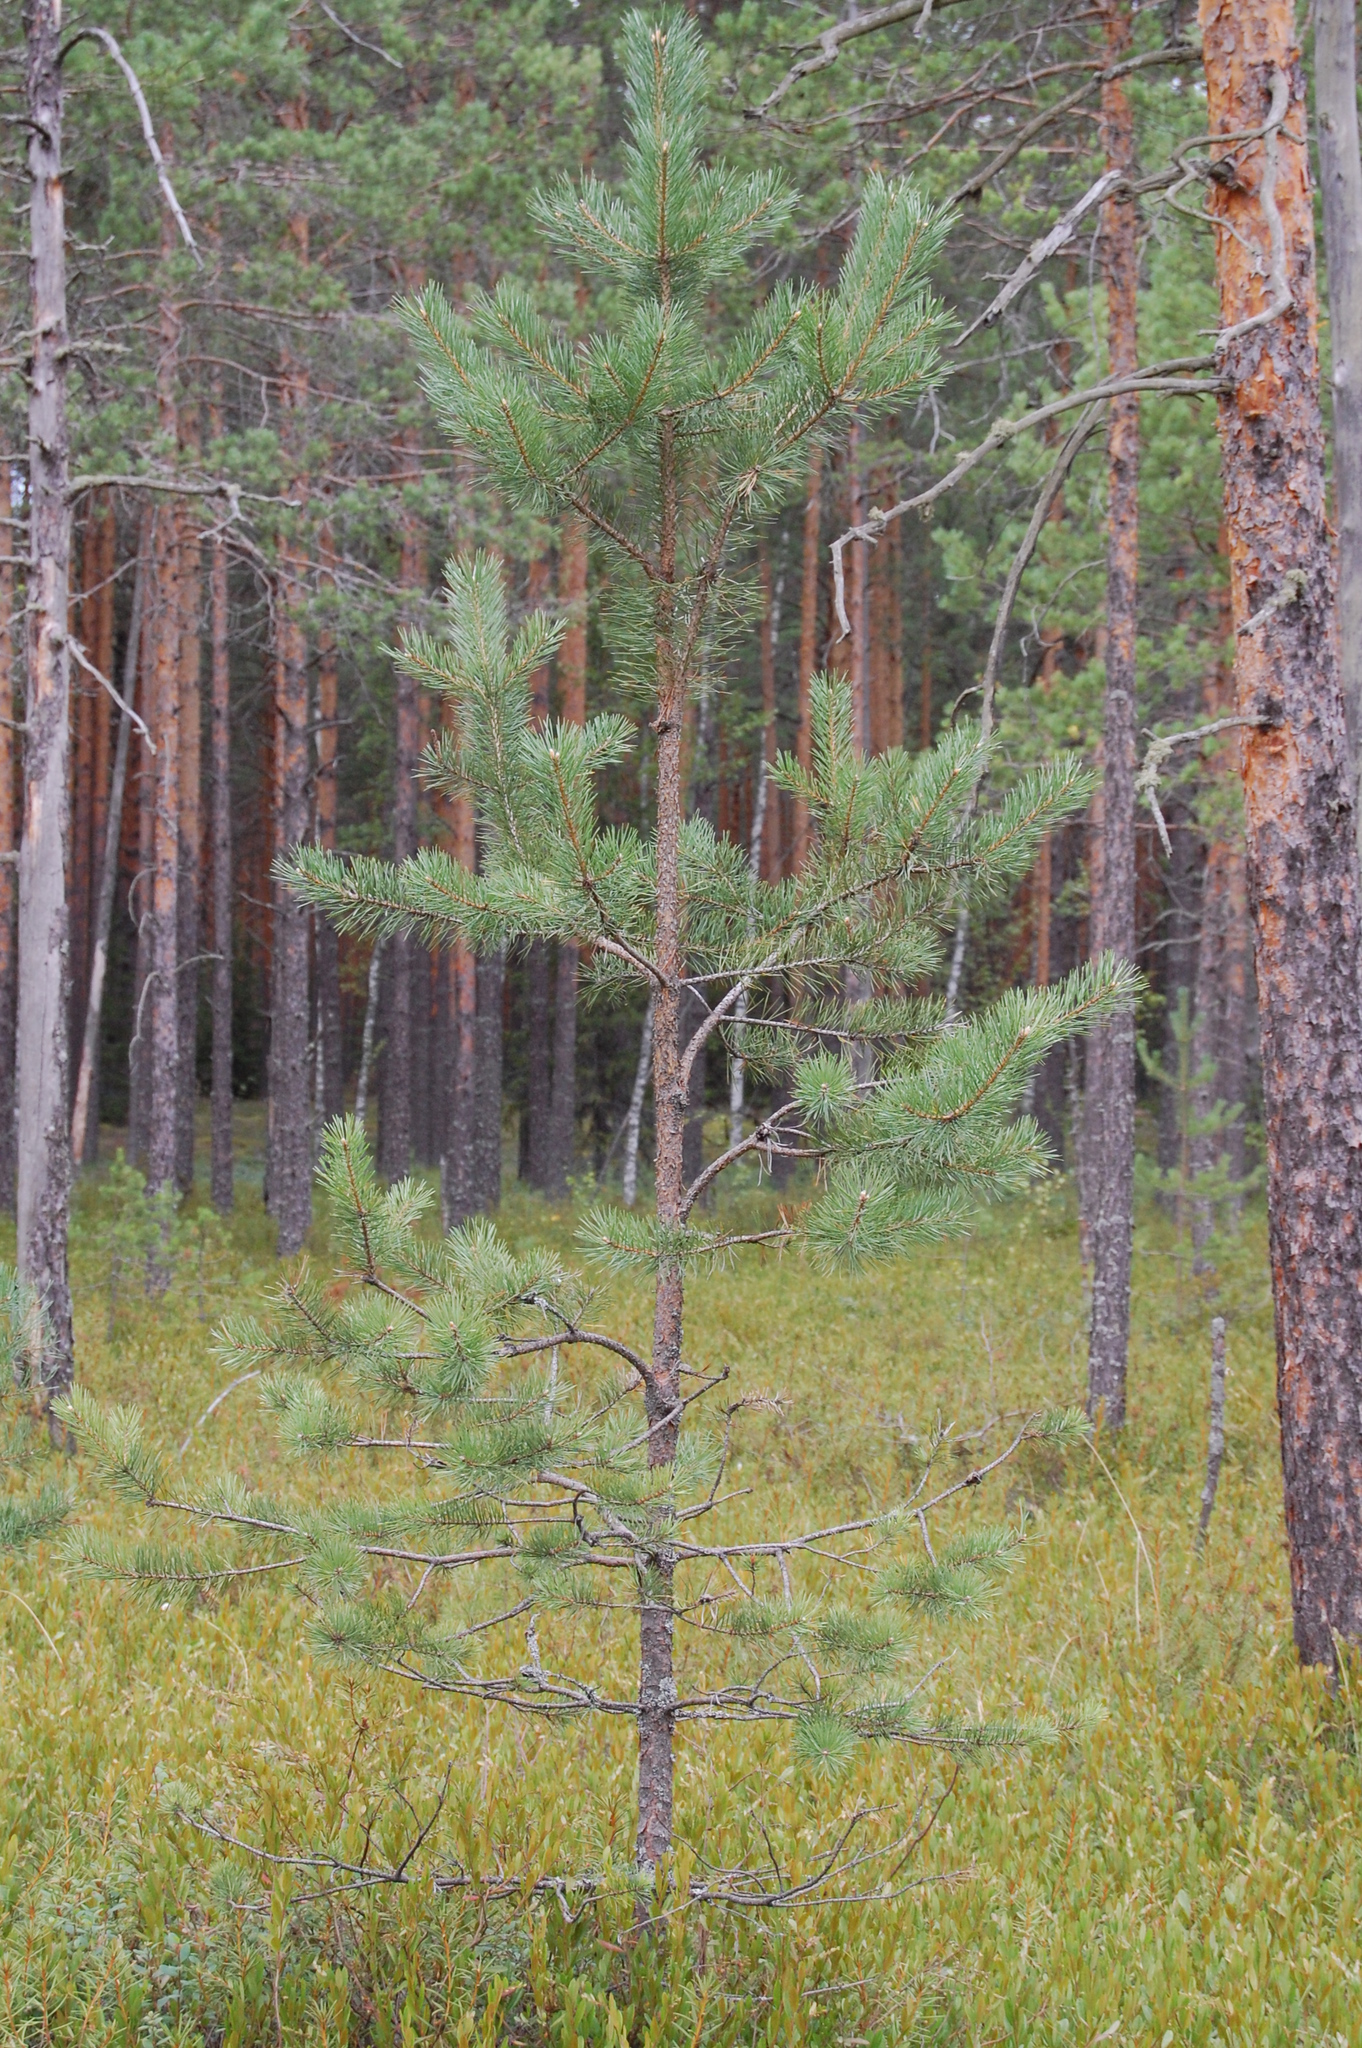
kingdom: Plantae
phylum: Tracheophyta
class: Pinopsida
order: Pinales
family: Pinaceae
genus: Pinus
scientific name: Pinus sylvestris
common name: Scots pine
